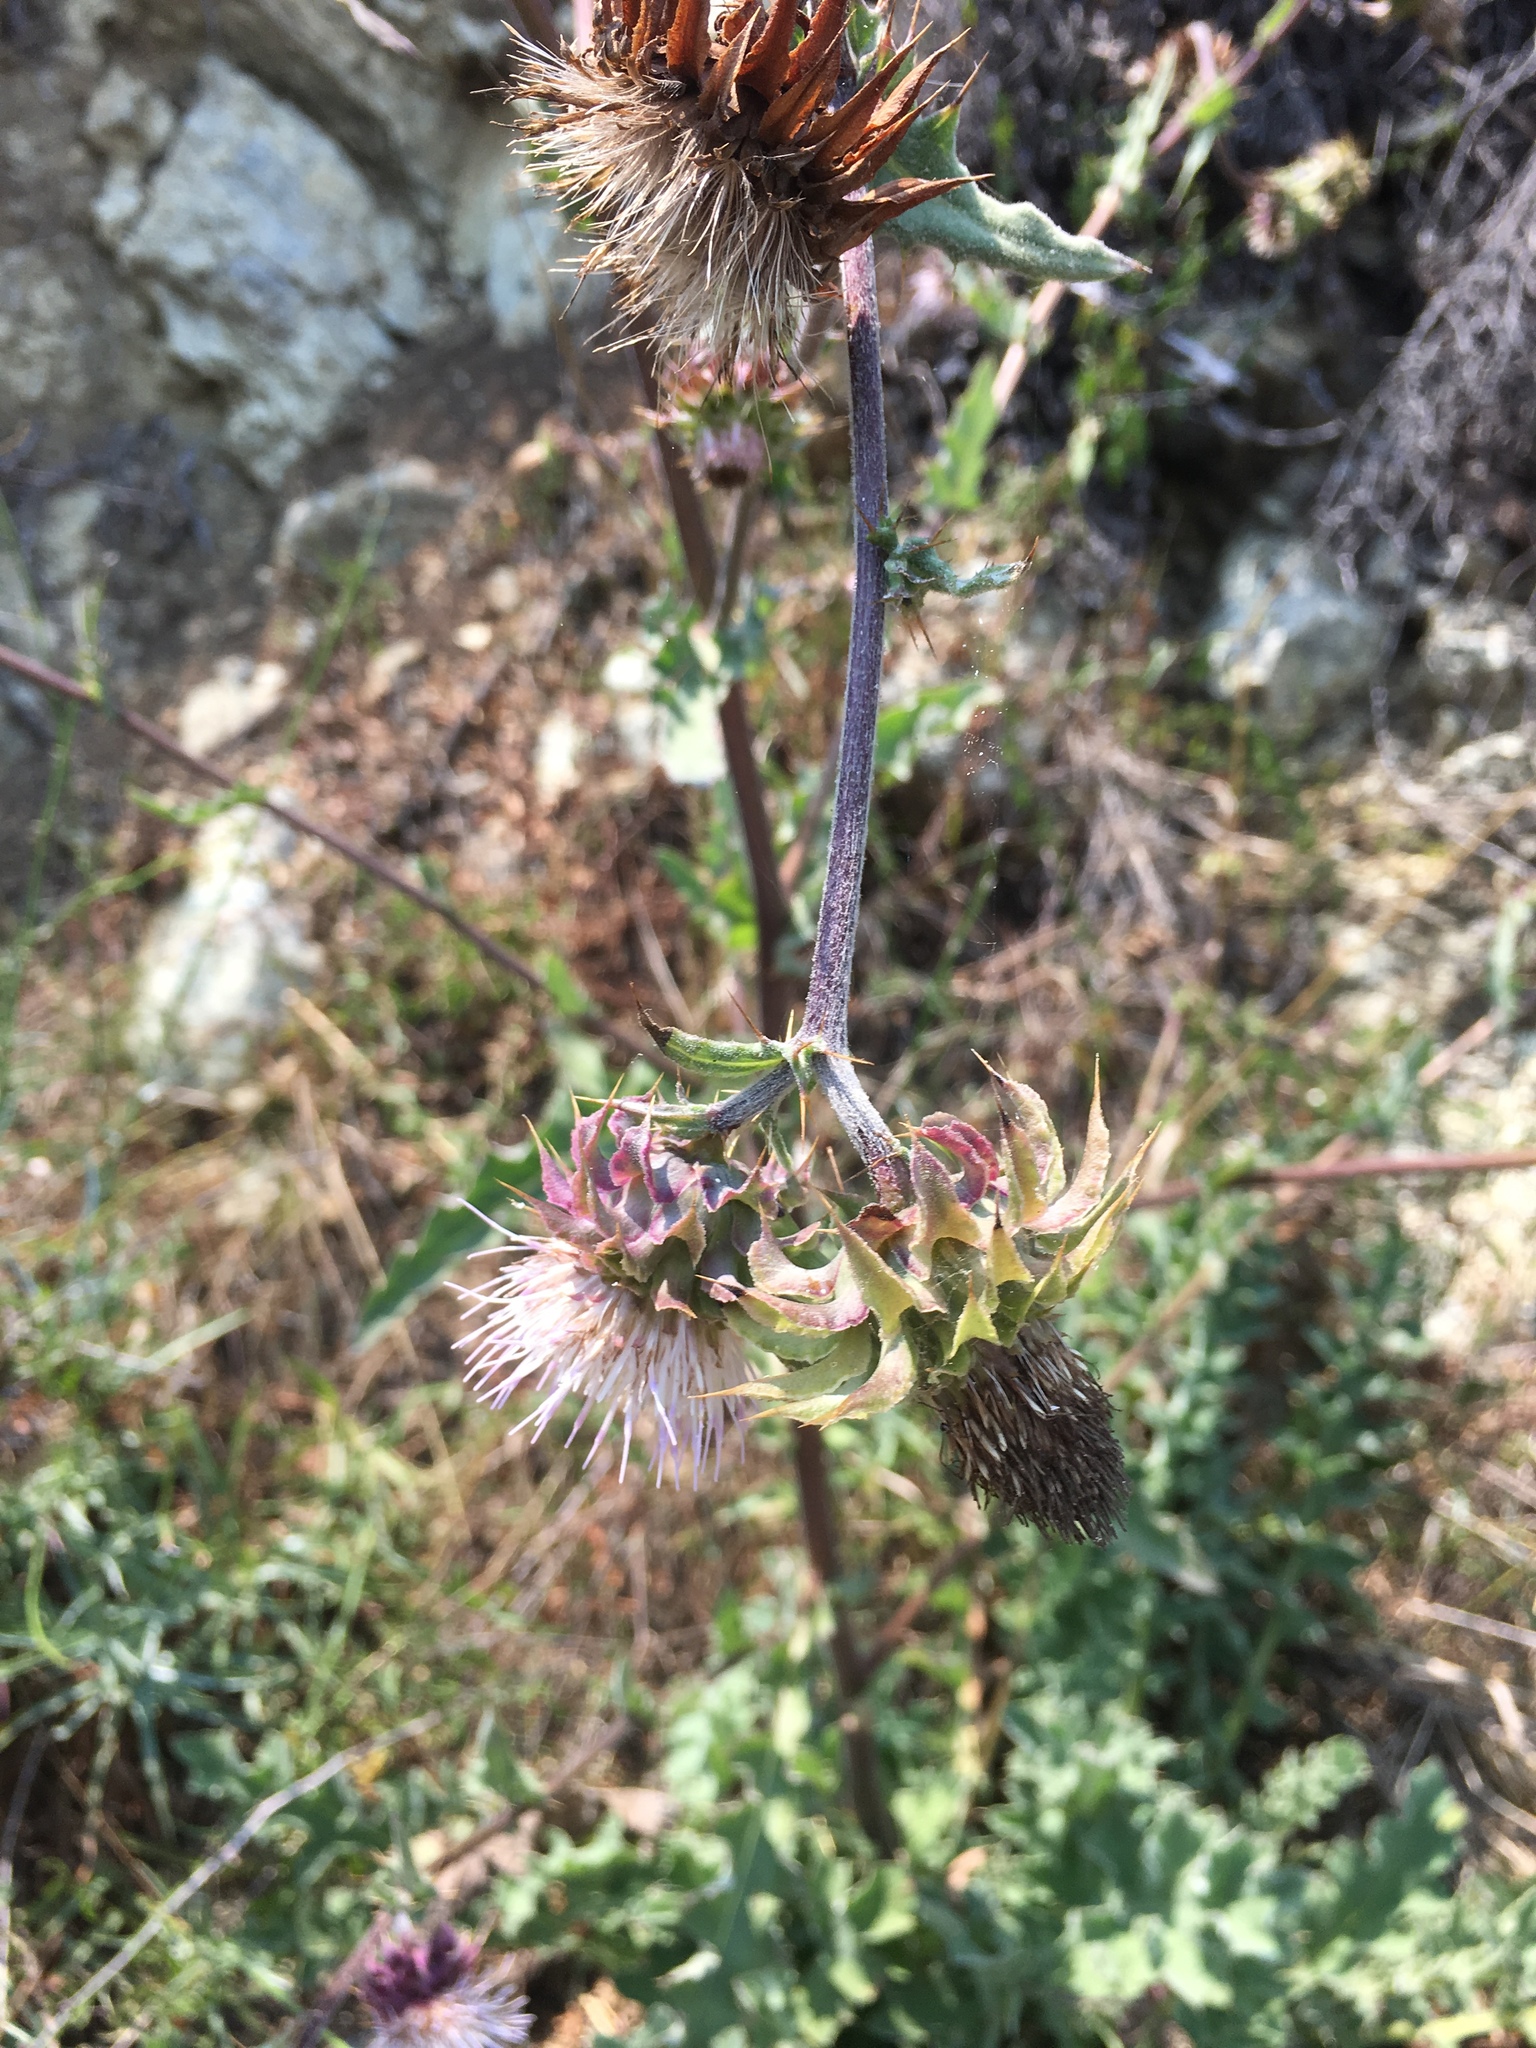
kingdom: Plantae
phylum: Tracheophyta
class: Magnoliopsida
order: Asterales
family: Asteraceae
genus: Cirsium
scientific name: Cirsium fontinale
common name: Fountain thistle
